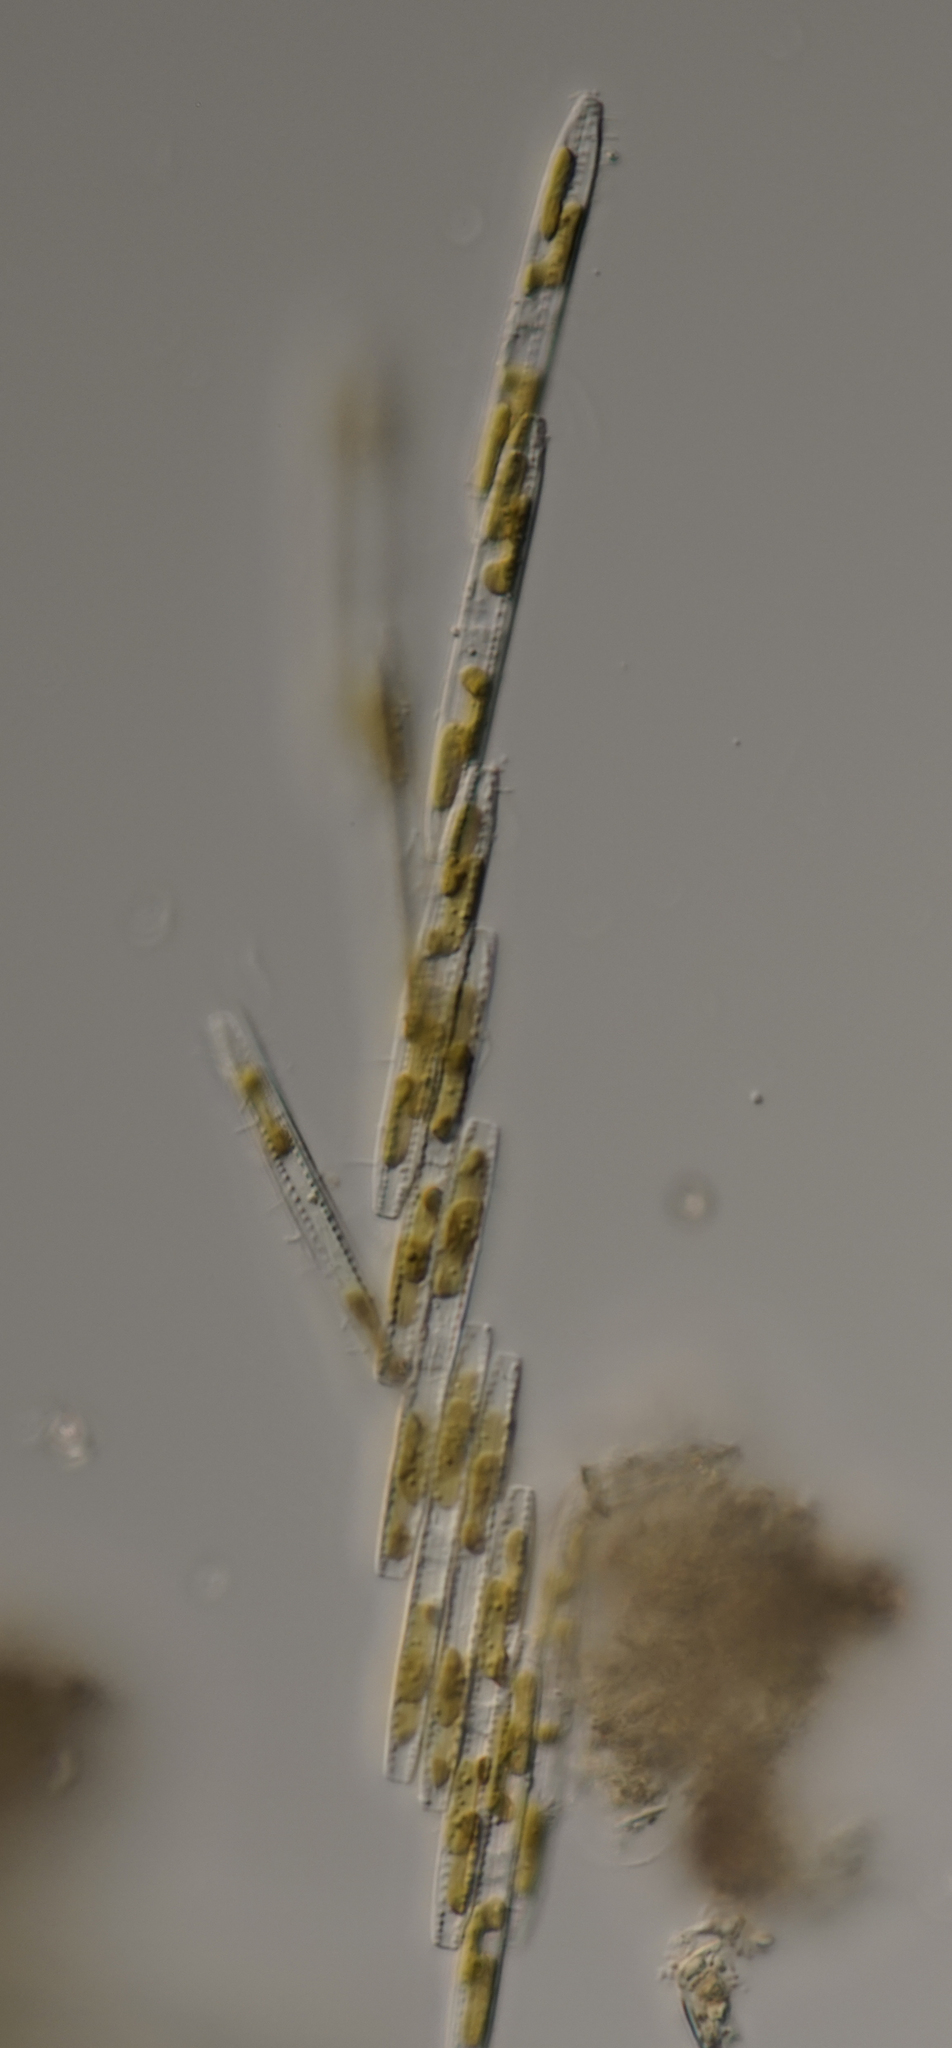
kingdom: Chromista
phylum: Ochrophyta
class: Bacillariophyceae
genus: Vibrio
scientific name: Vibrio paxillifer
